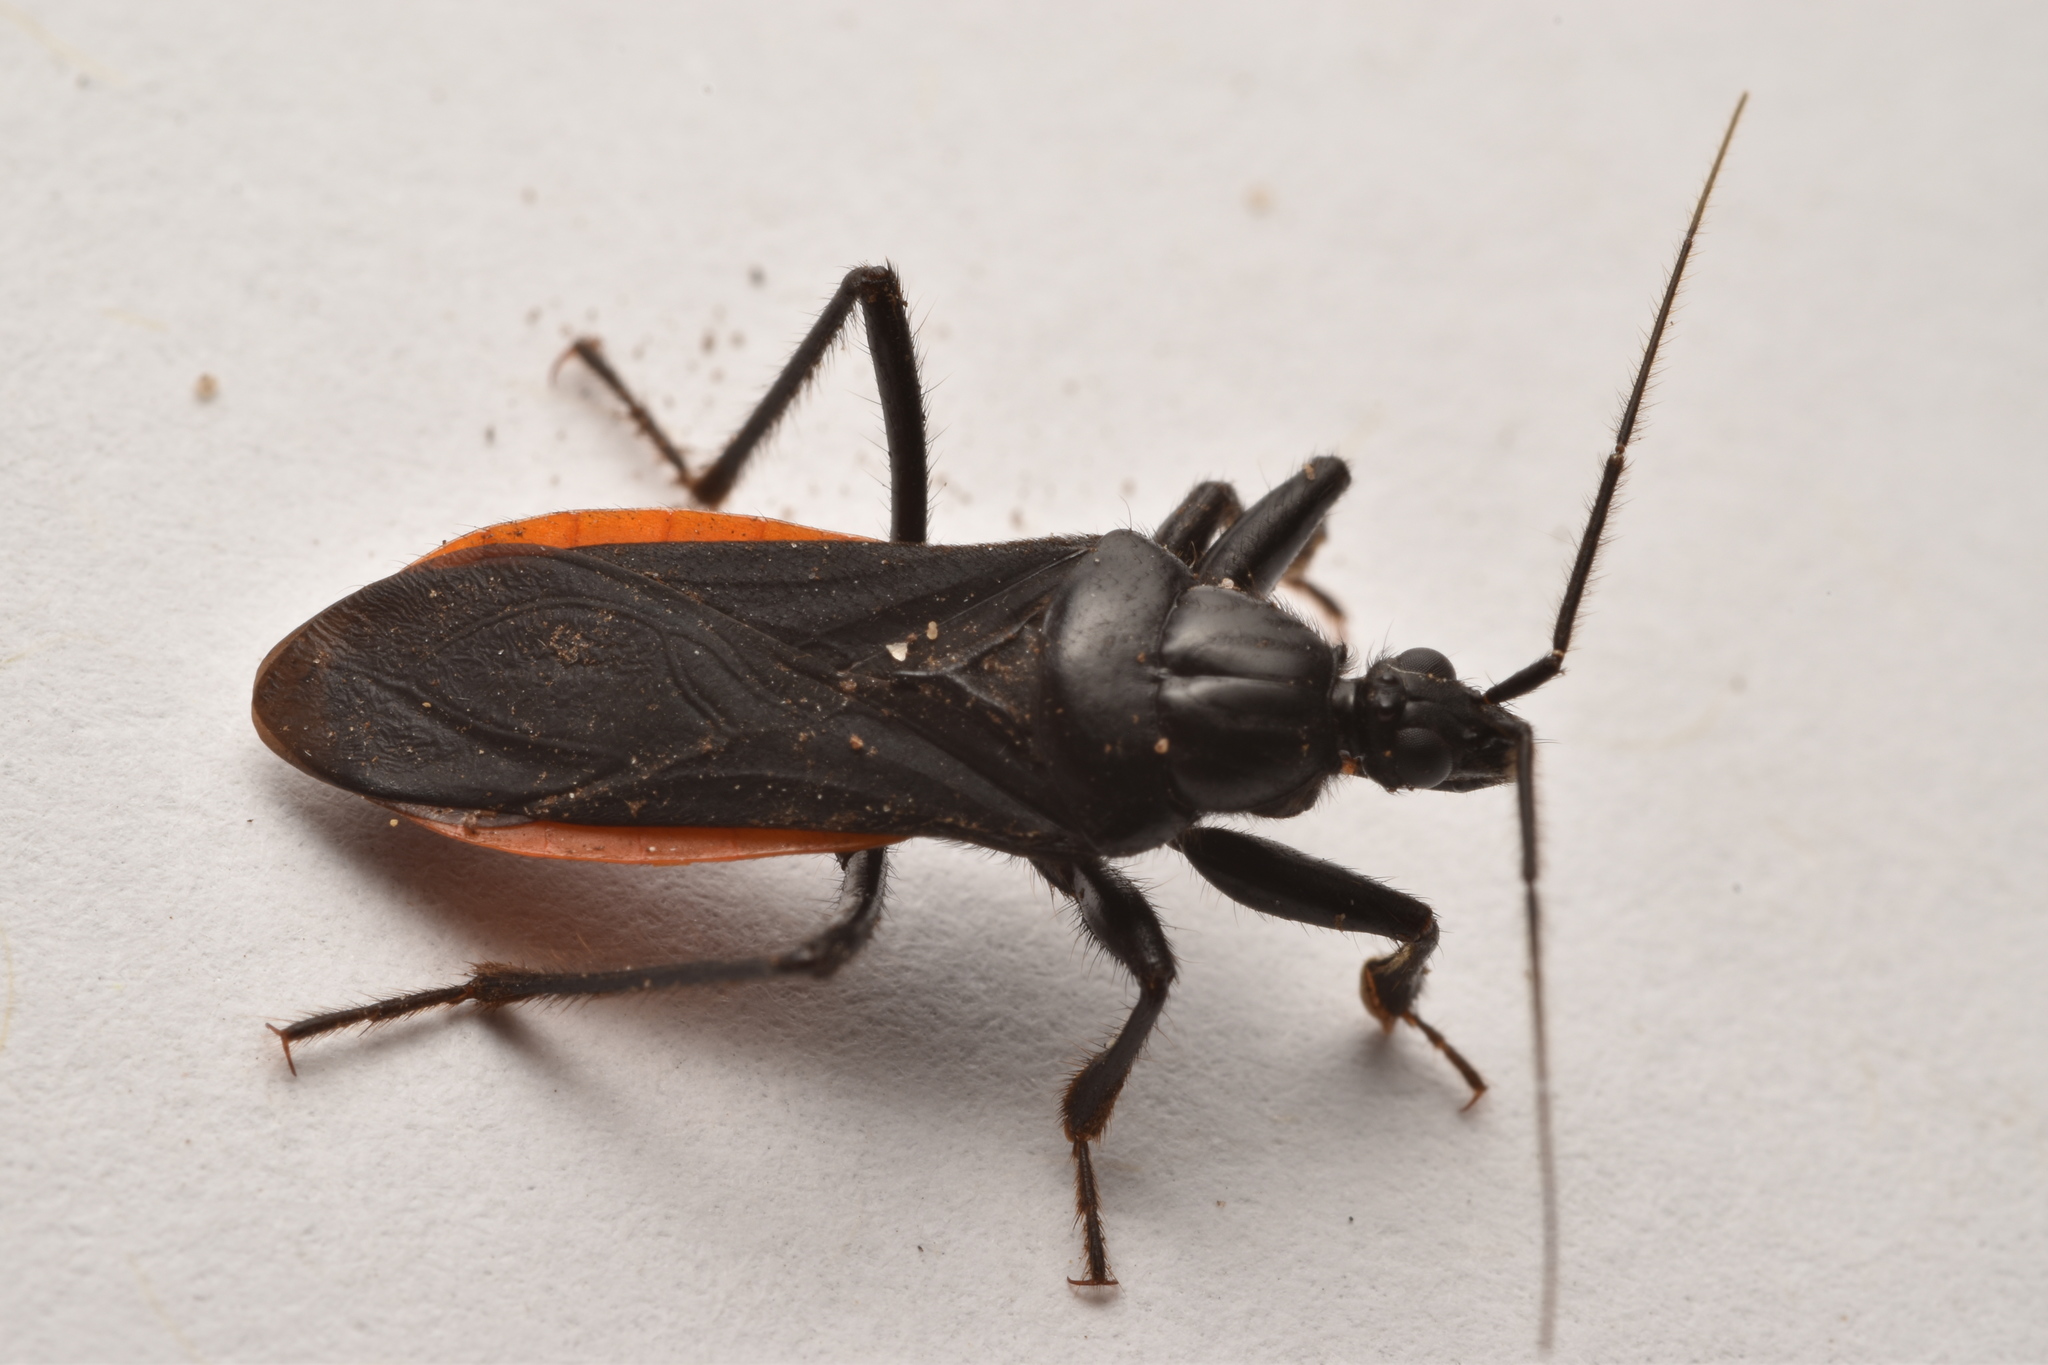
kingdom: Animalia
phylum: Arthropoda
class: Insecta
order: Hemiptera
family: Reduviidae
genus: Melanolestes
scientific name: Melanolestes picipes
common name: Assassin bug
